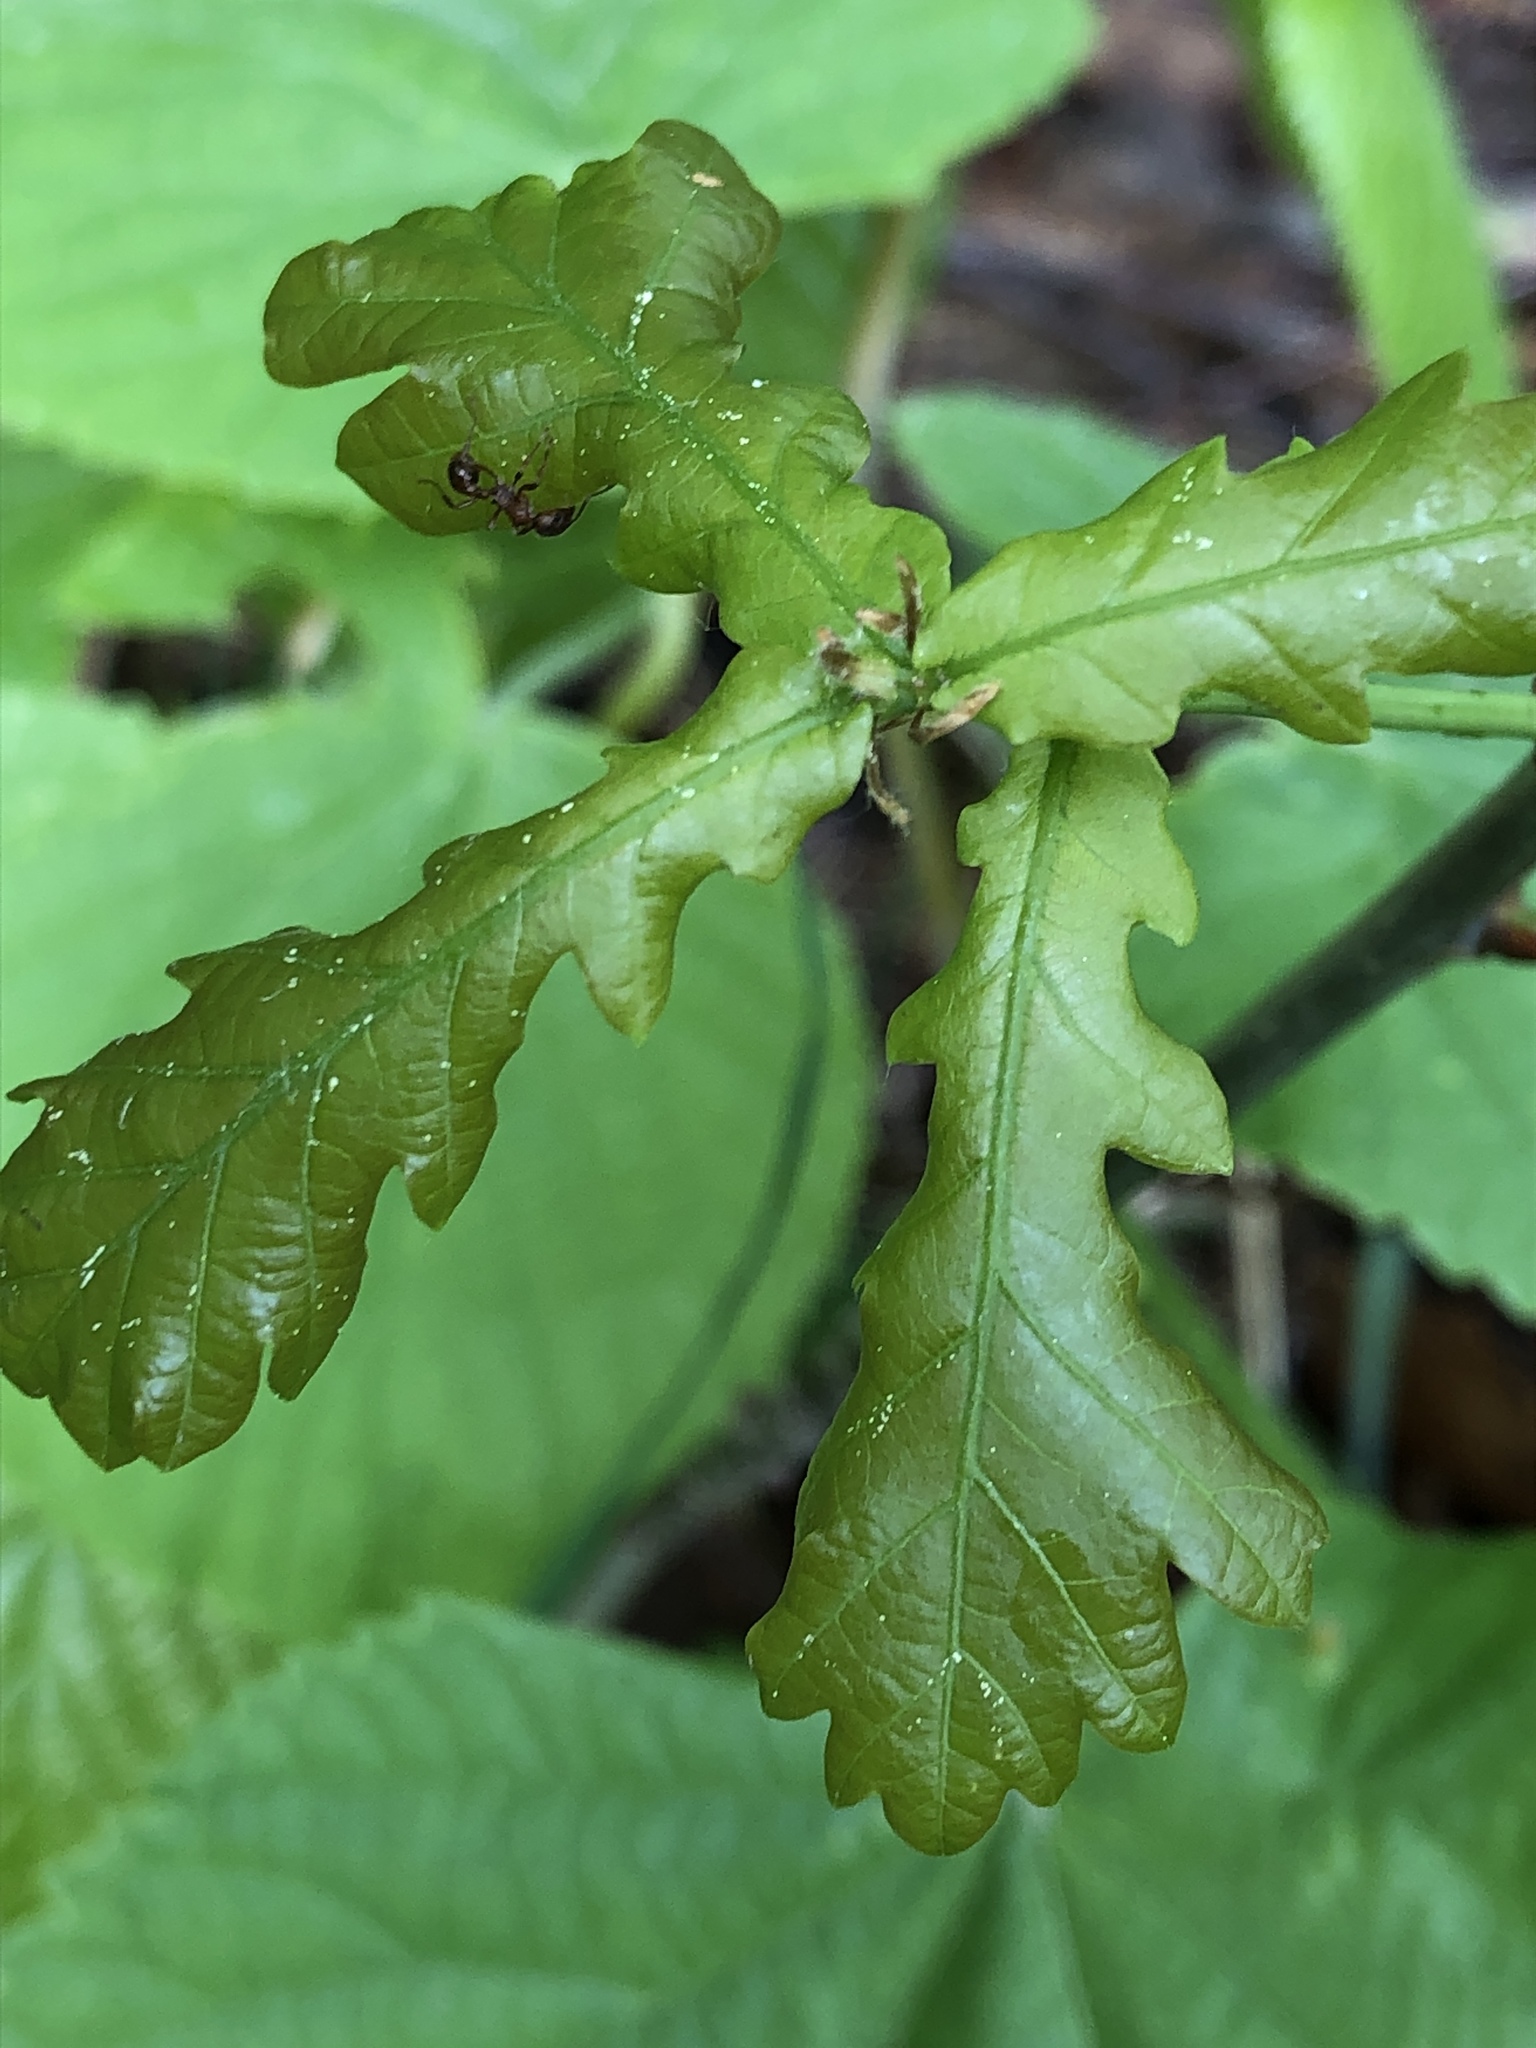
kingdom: Plantae
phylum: Tracheophyta
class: Magnoliopsida
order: Fagales
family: Fagaceae
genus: Quercus
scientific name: Quercus robur
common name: Pedunculate oak
